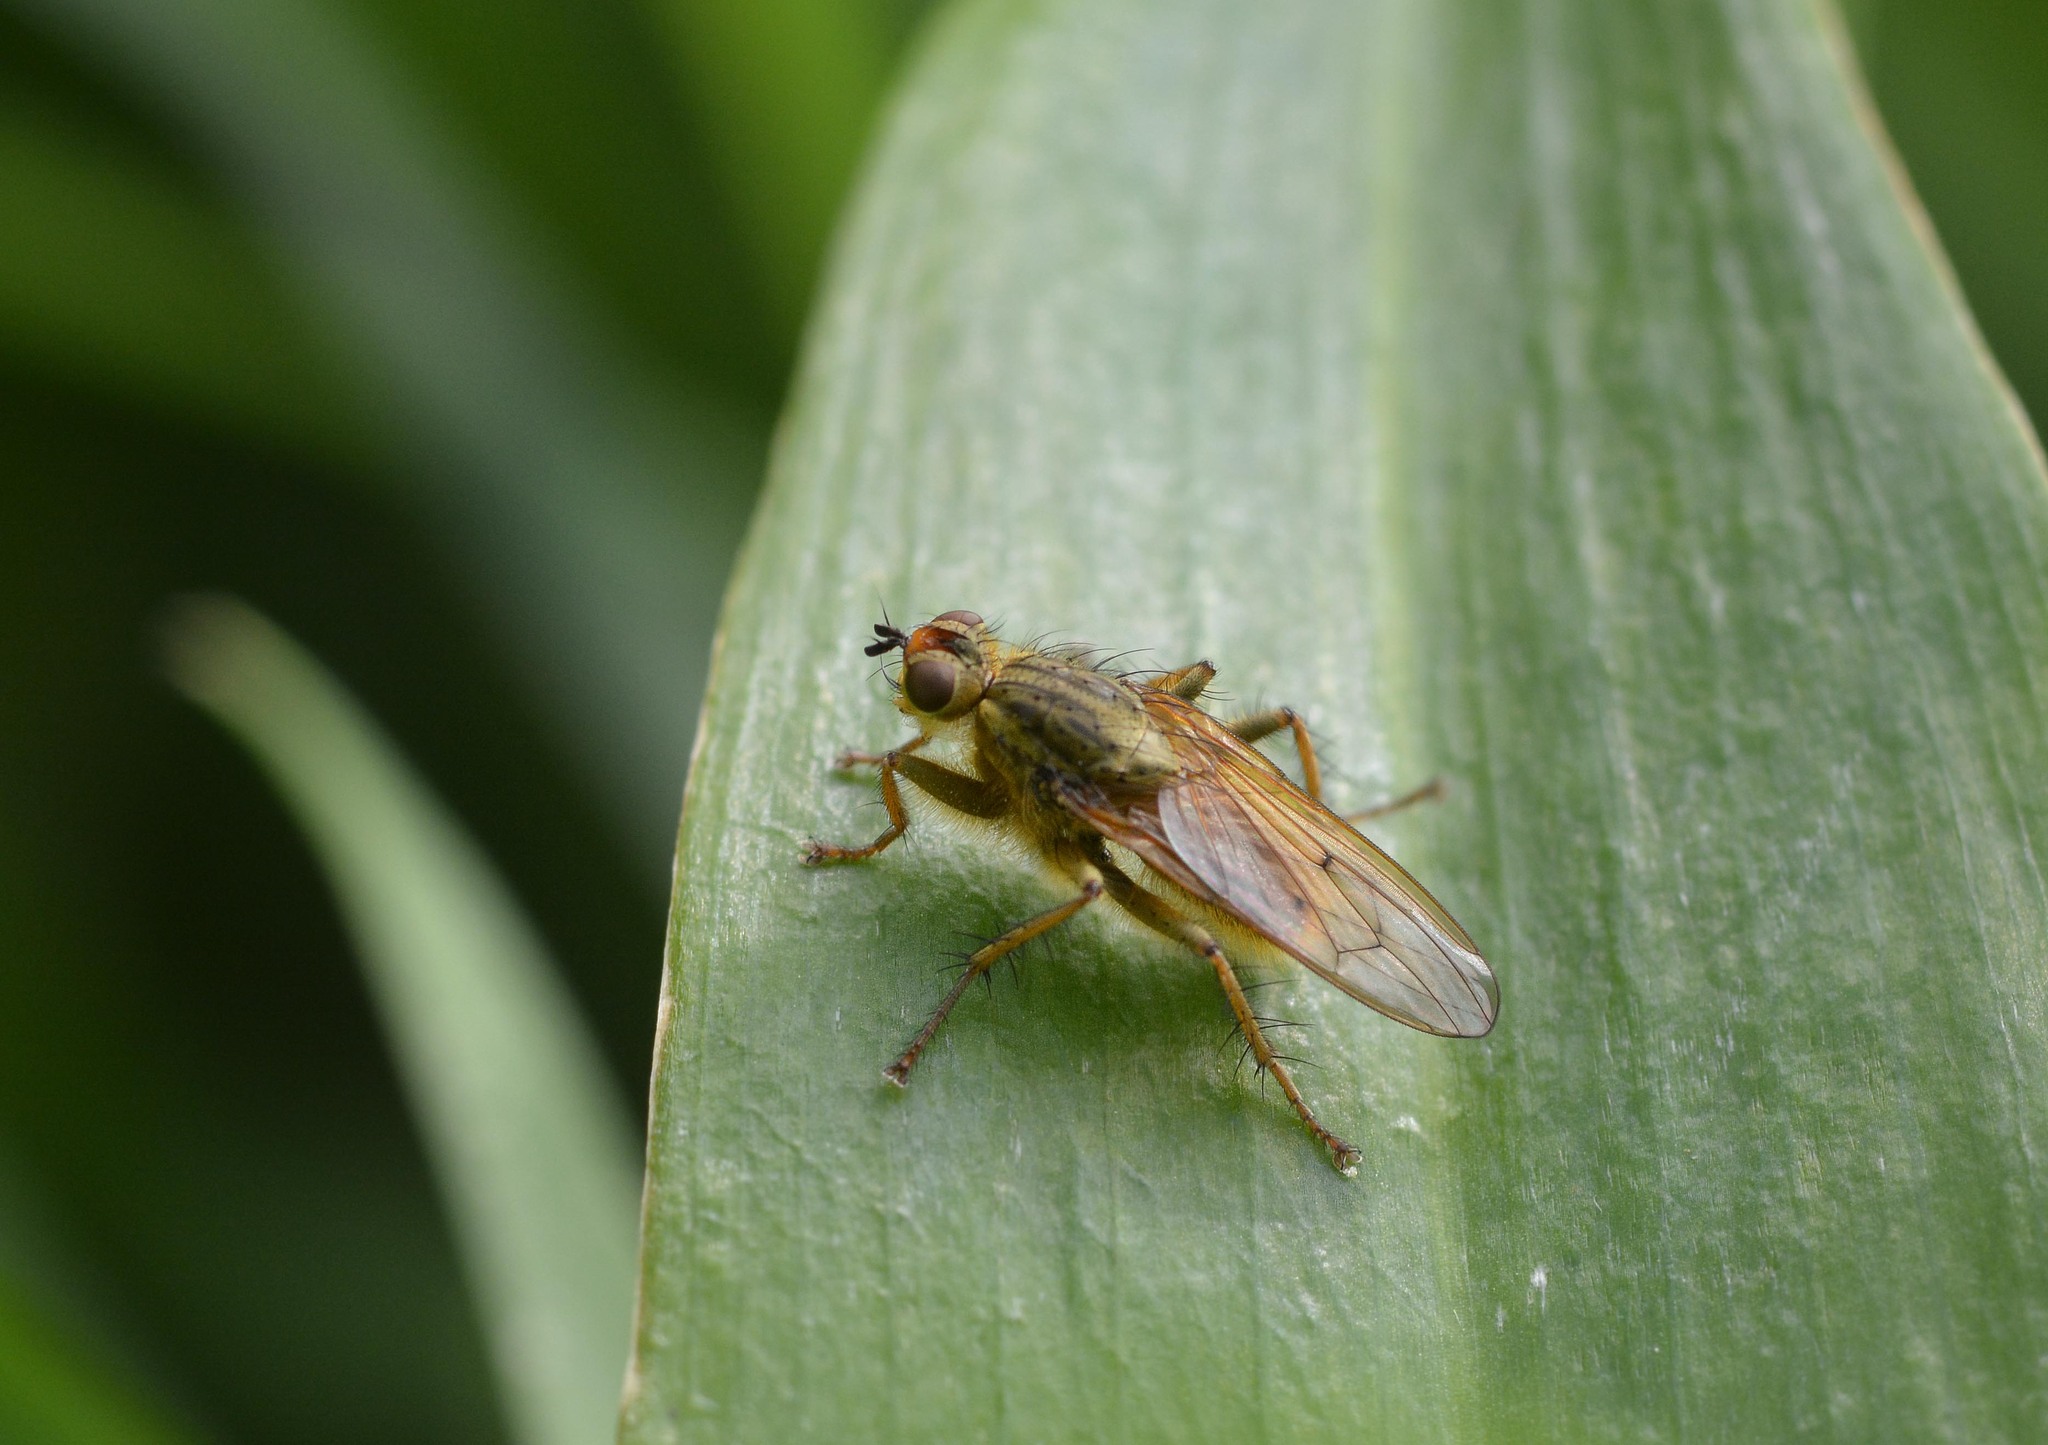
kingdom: Animalia
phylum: Arthropoda
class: Insecta
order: Diptera
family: Scathophagidae
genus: Scathophaga
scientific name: Scathophaga stercoraria
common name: Yellow dung fly
